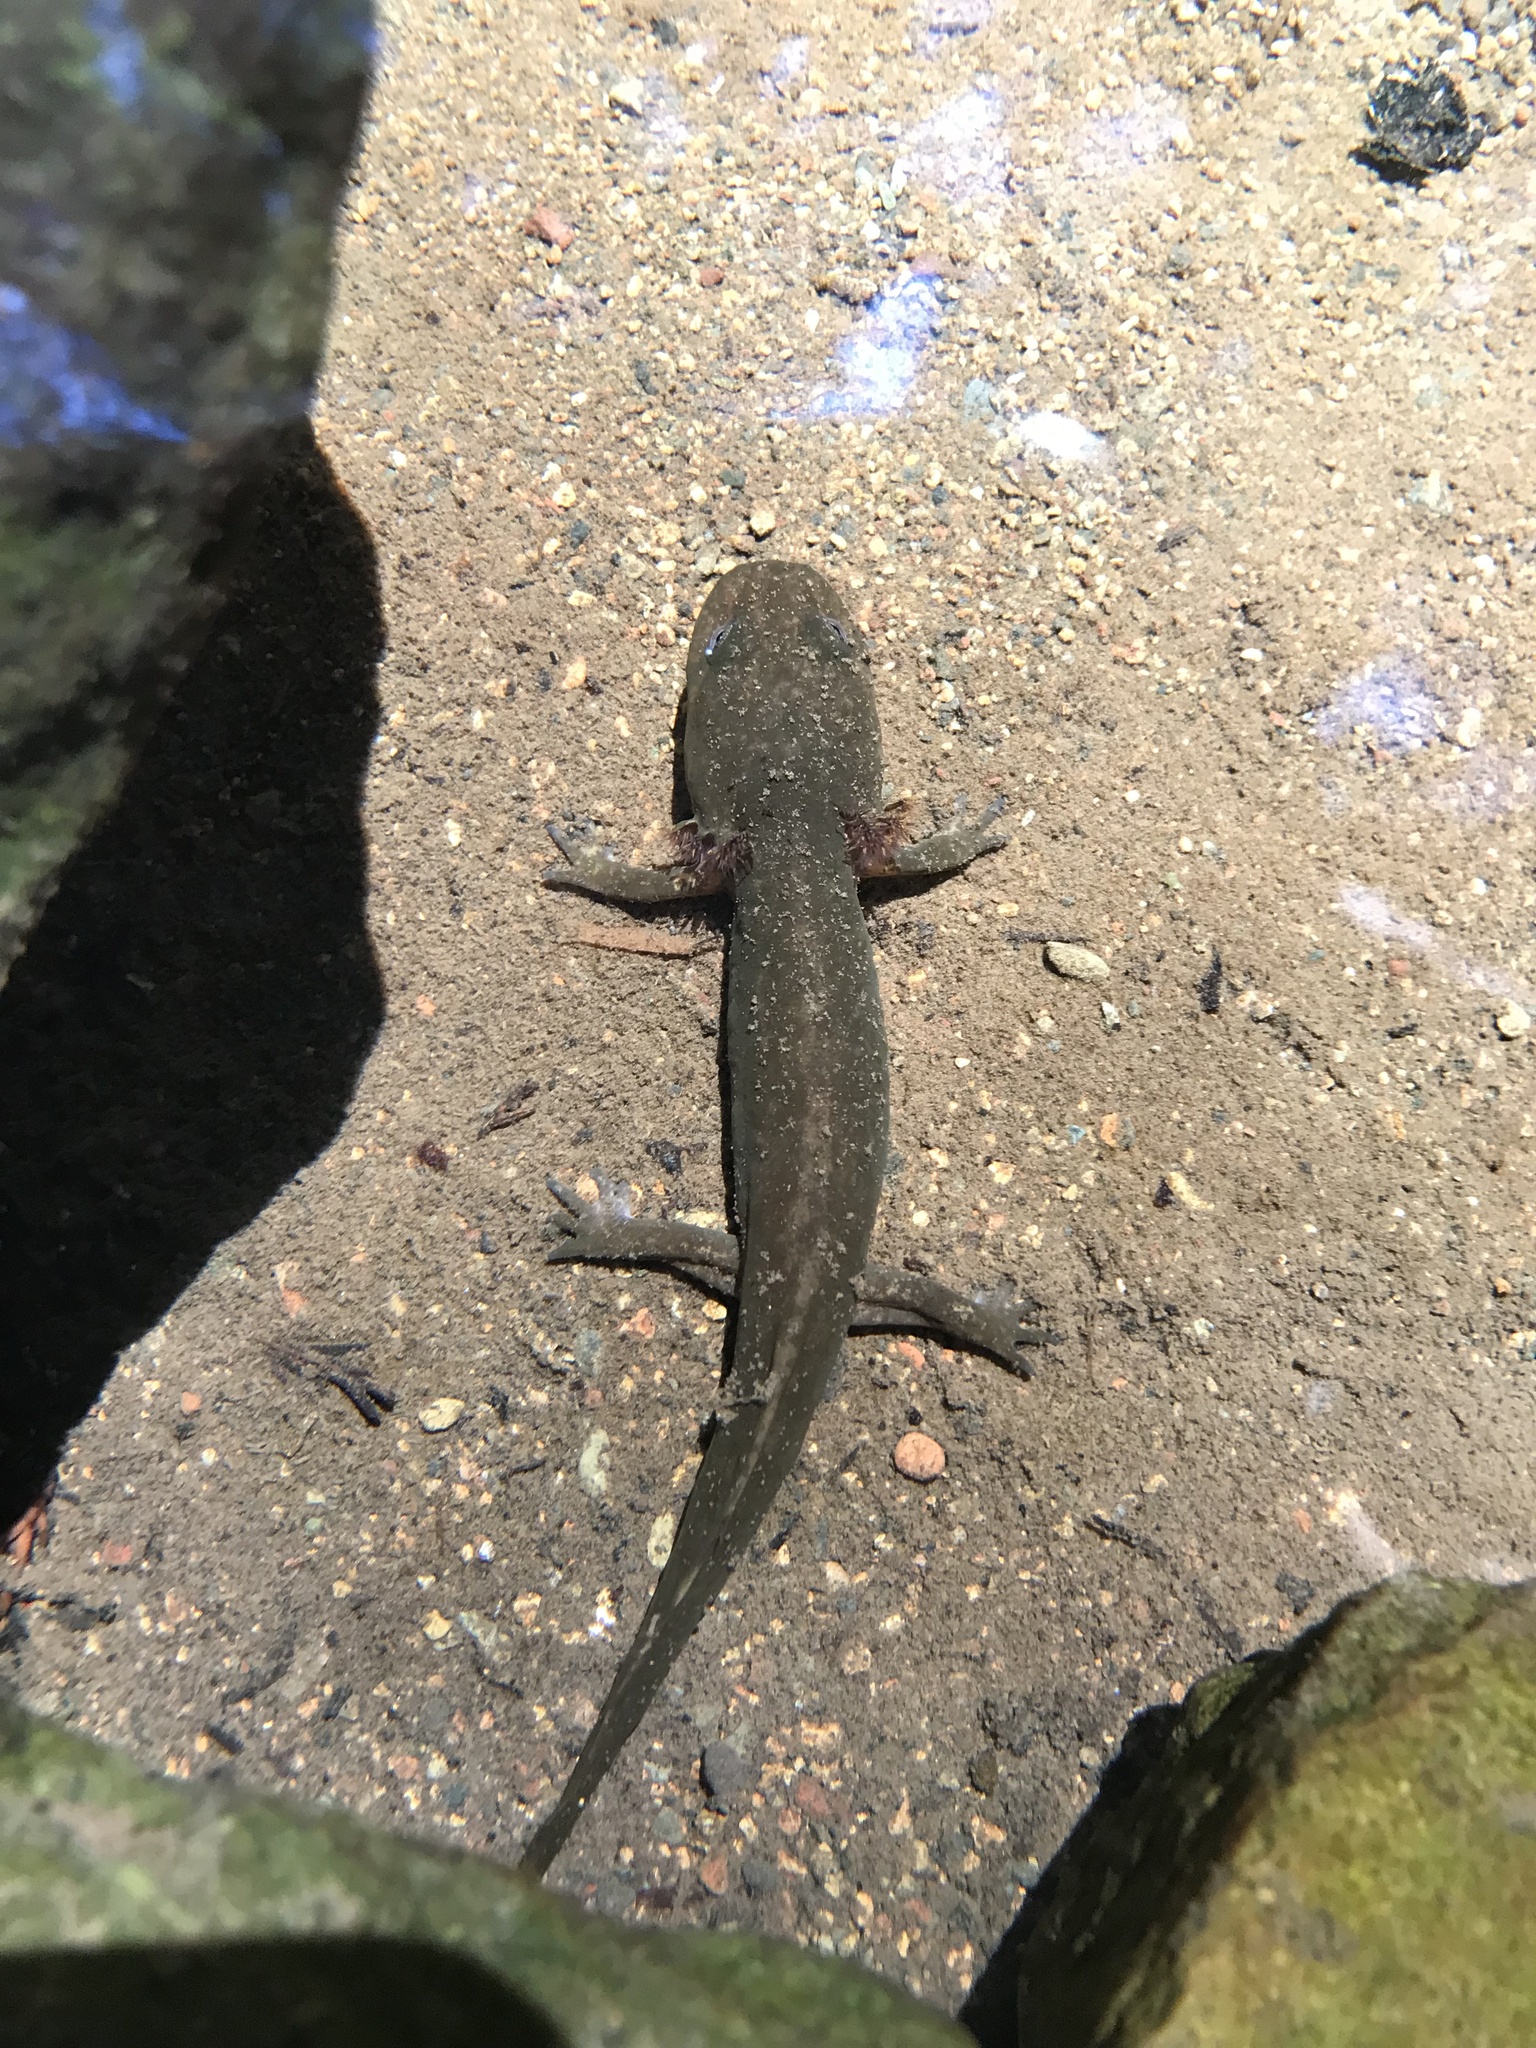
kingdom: Animalia
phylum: Chordata
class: Amphibia
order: Caudata
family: Ambystomatidae
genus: Dicamptodon
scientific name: Dicamptodon ensatus
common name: California giant salamander
